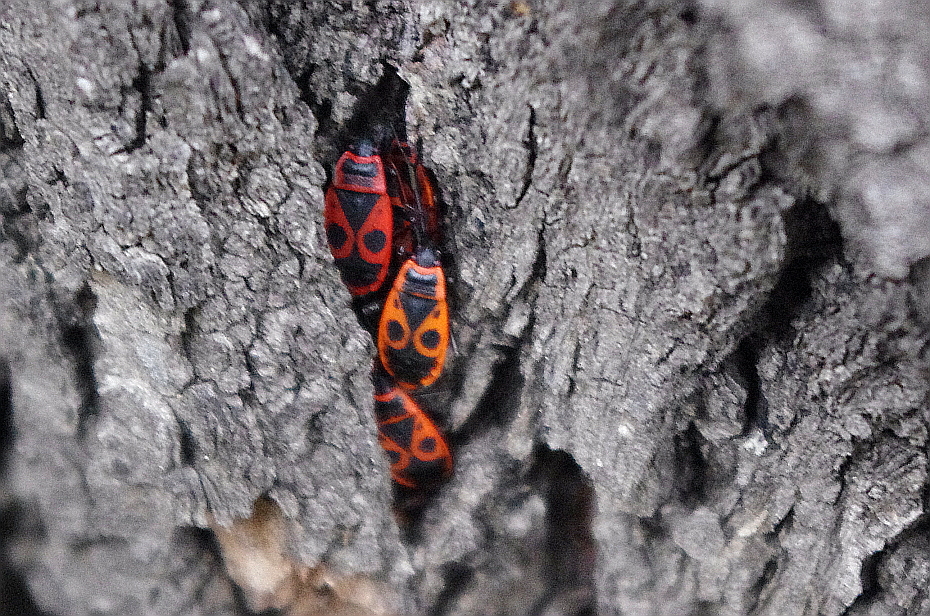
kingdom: Animalia
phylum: Arthropoda
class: Insecta
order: Hemiptera
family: Pyrrhocoridae
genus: Pyrrhocoris
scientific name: Pyrrhocoris apterus
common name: Firebug
